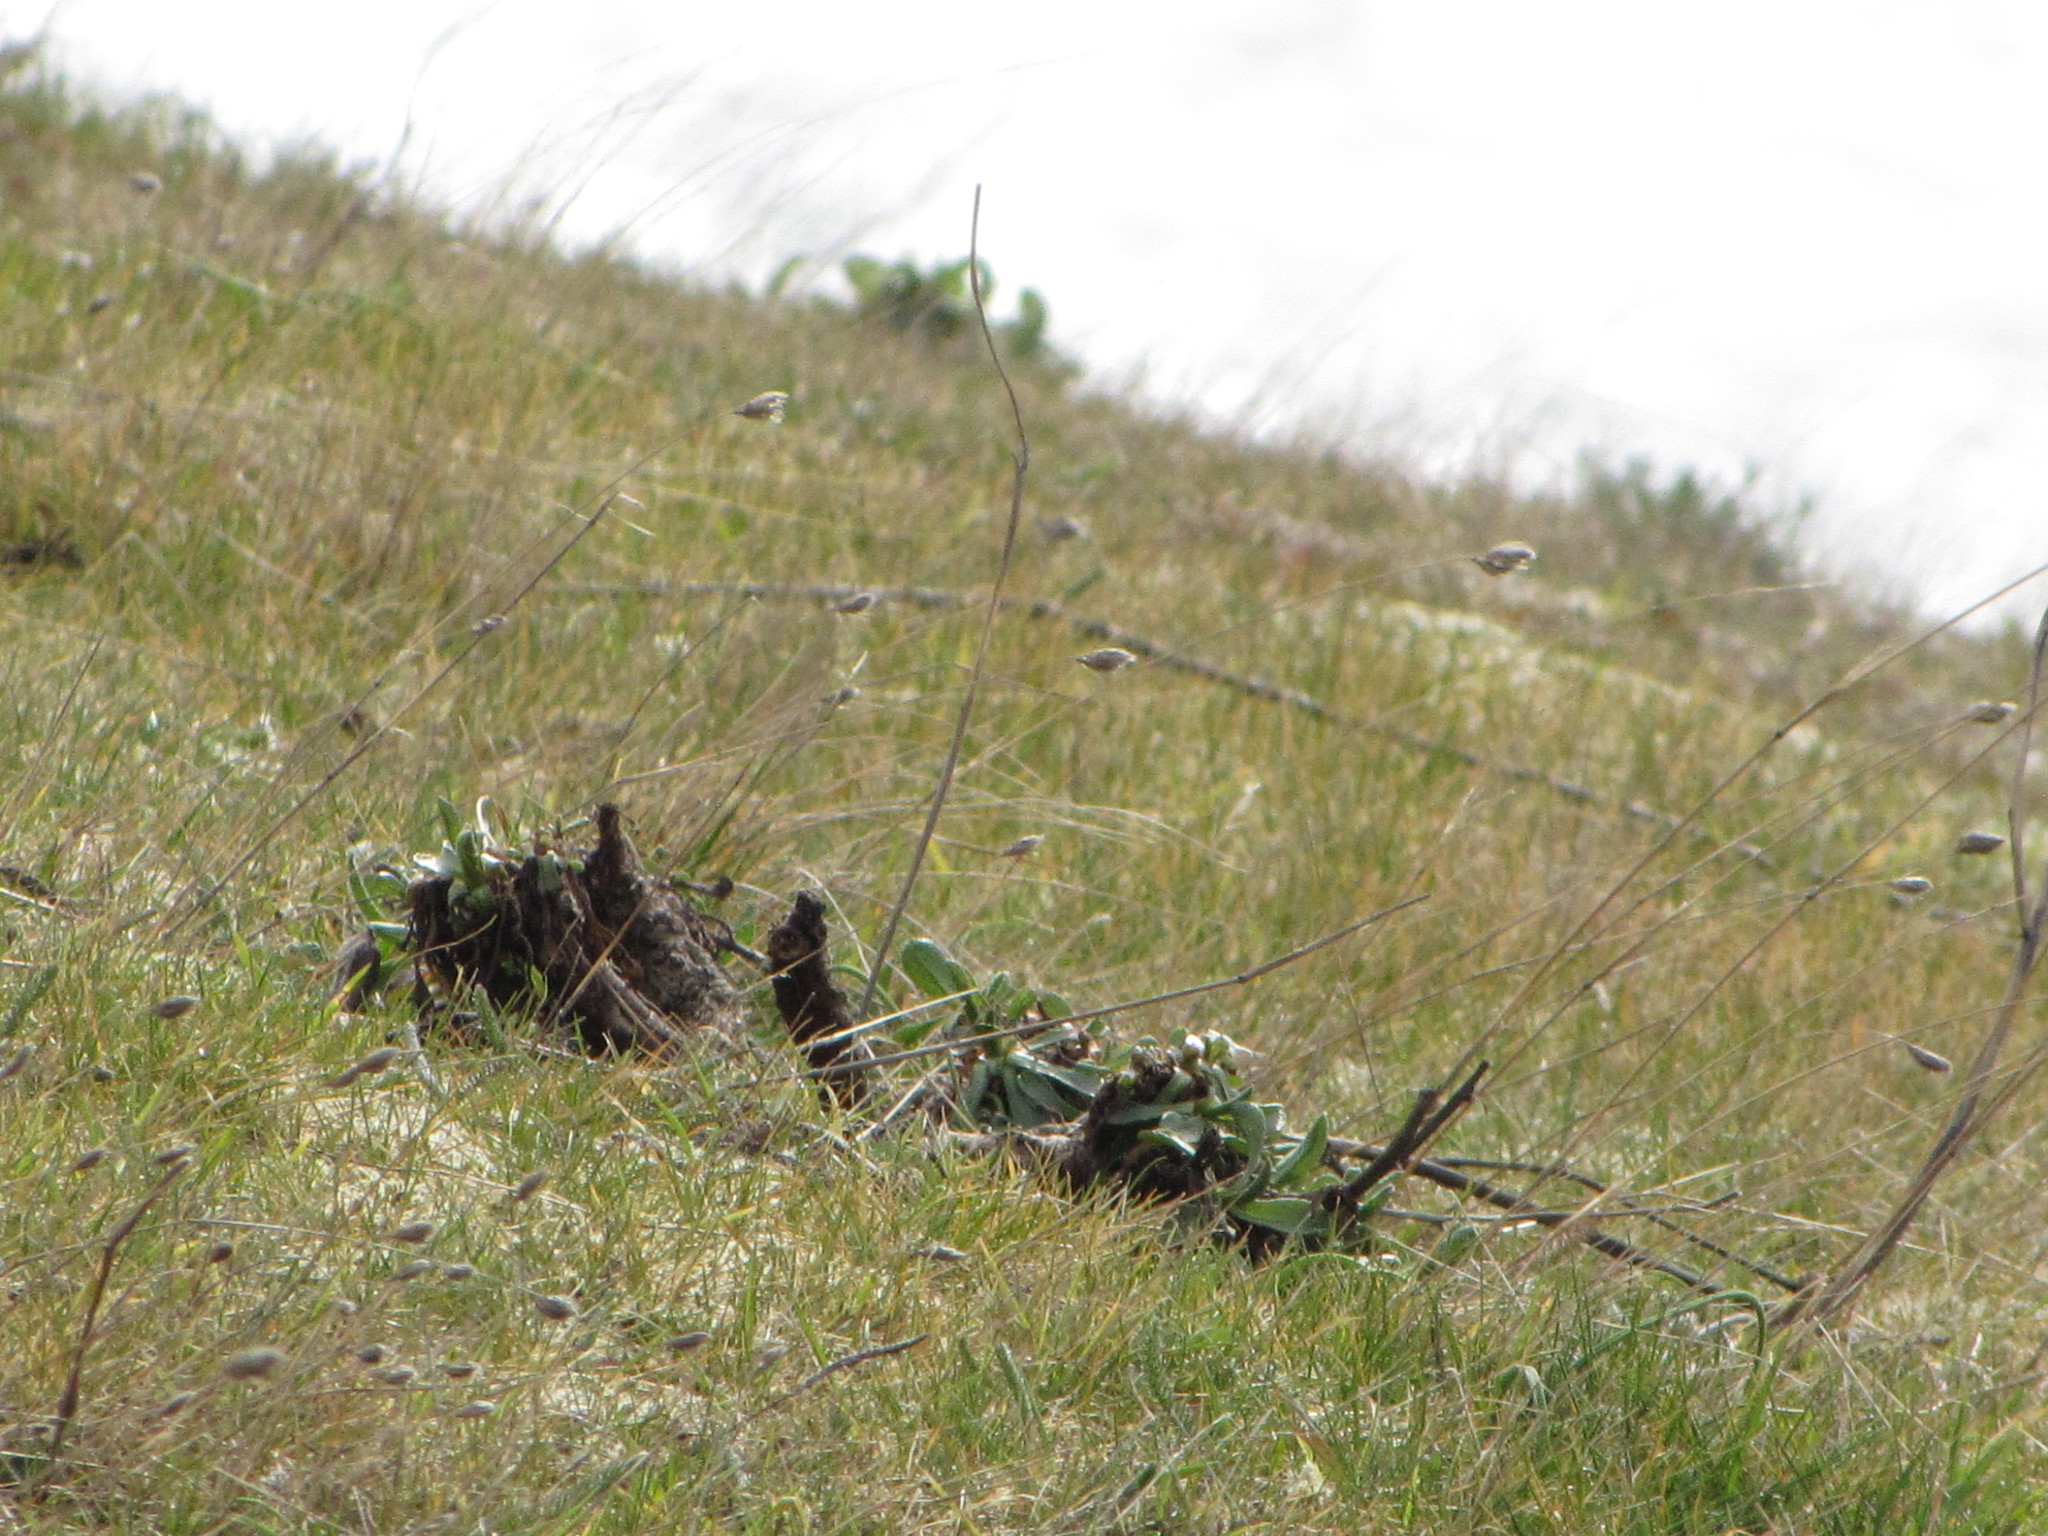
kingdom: Plantae
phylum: Tracheophyta
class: Liliopsida
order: Poales
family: Poaceae
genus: Cynosurus
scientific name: Cynosurus echinatus
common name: Rough dog's-tail
